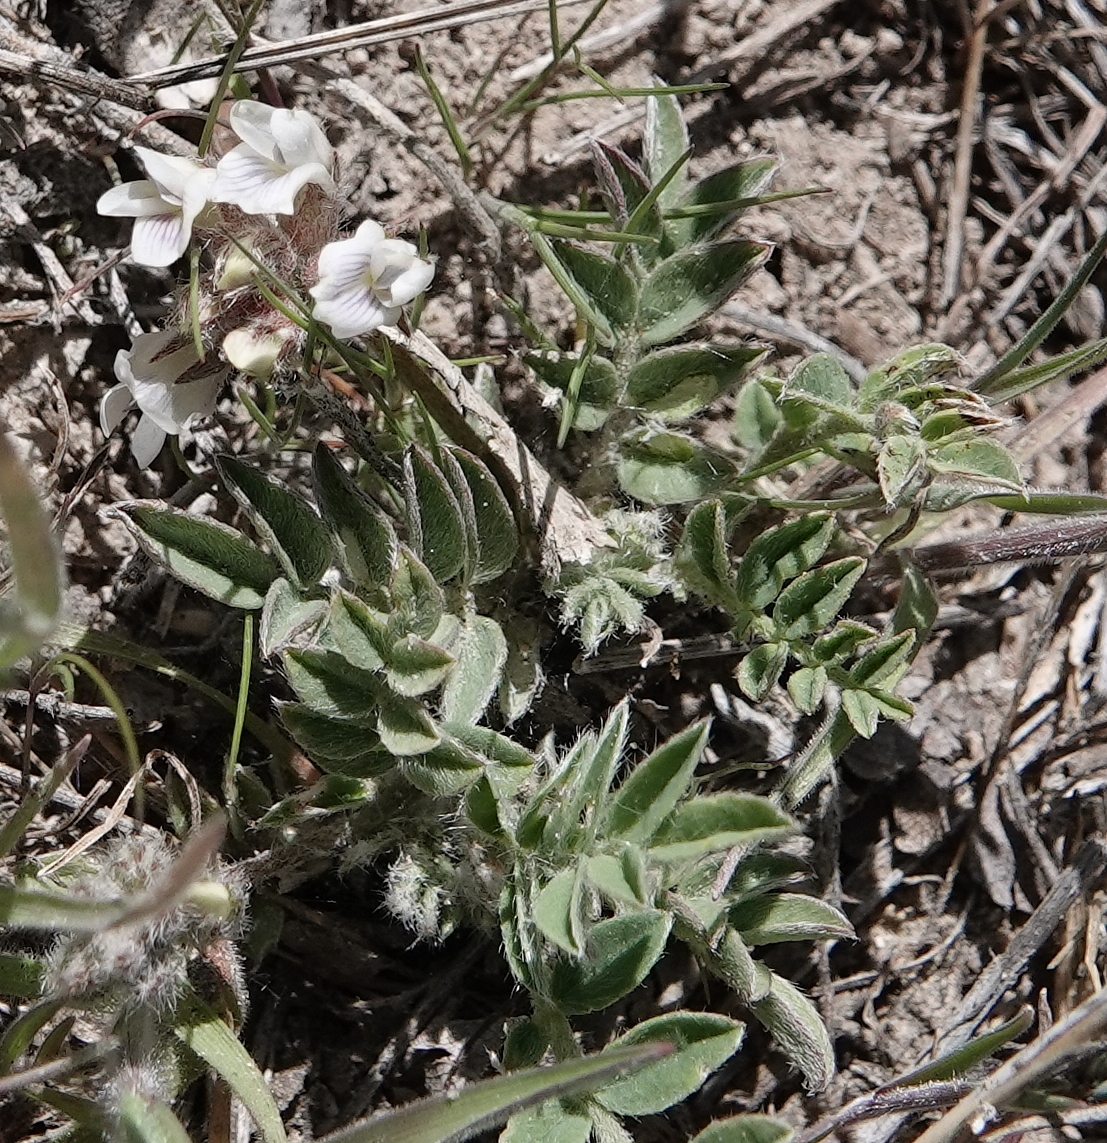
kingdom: Plantae
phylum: Tracheophyta
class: Magnoliopsida
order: Fabales
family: Fabaceae
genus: Astragalus
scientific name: Astragalus lotiflorus
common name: Lotus milk-vetch
